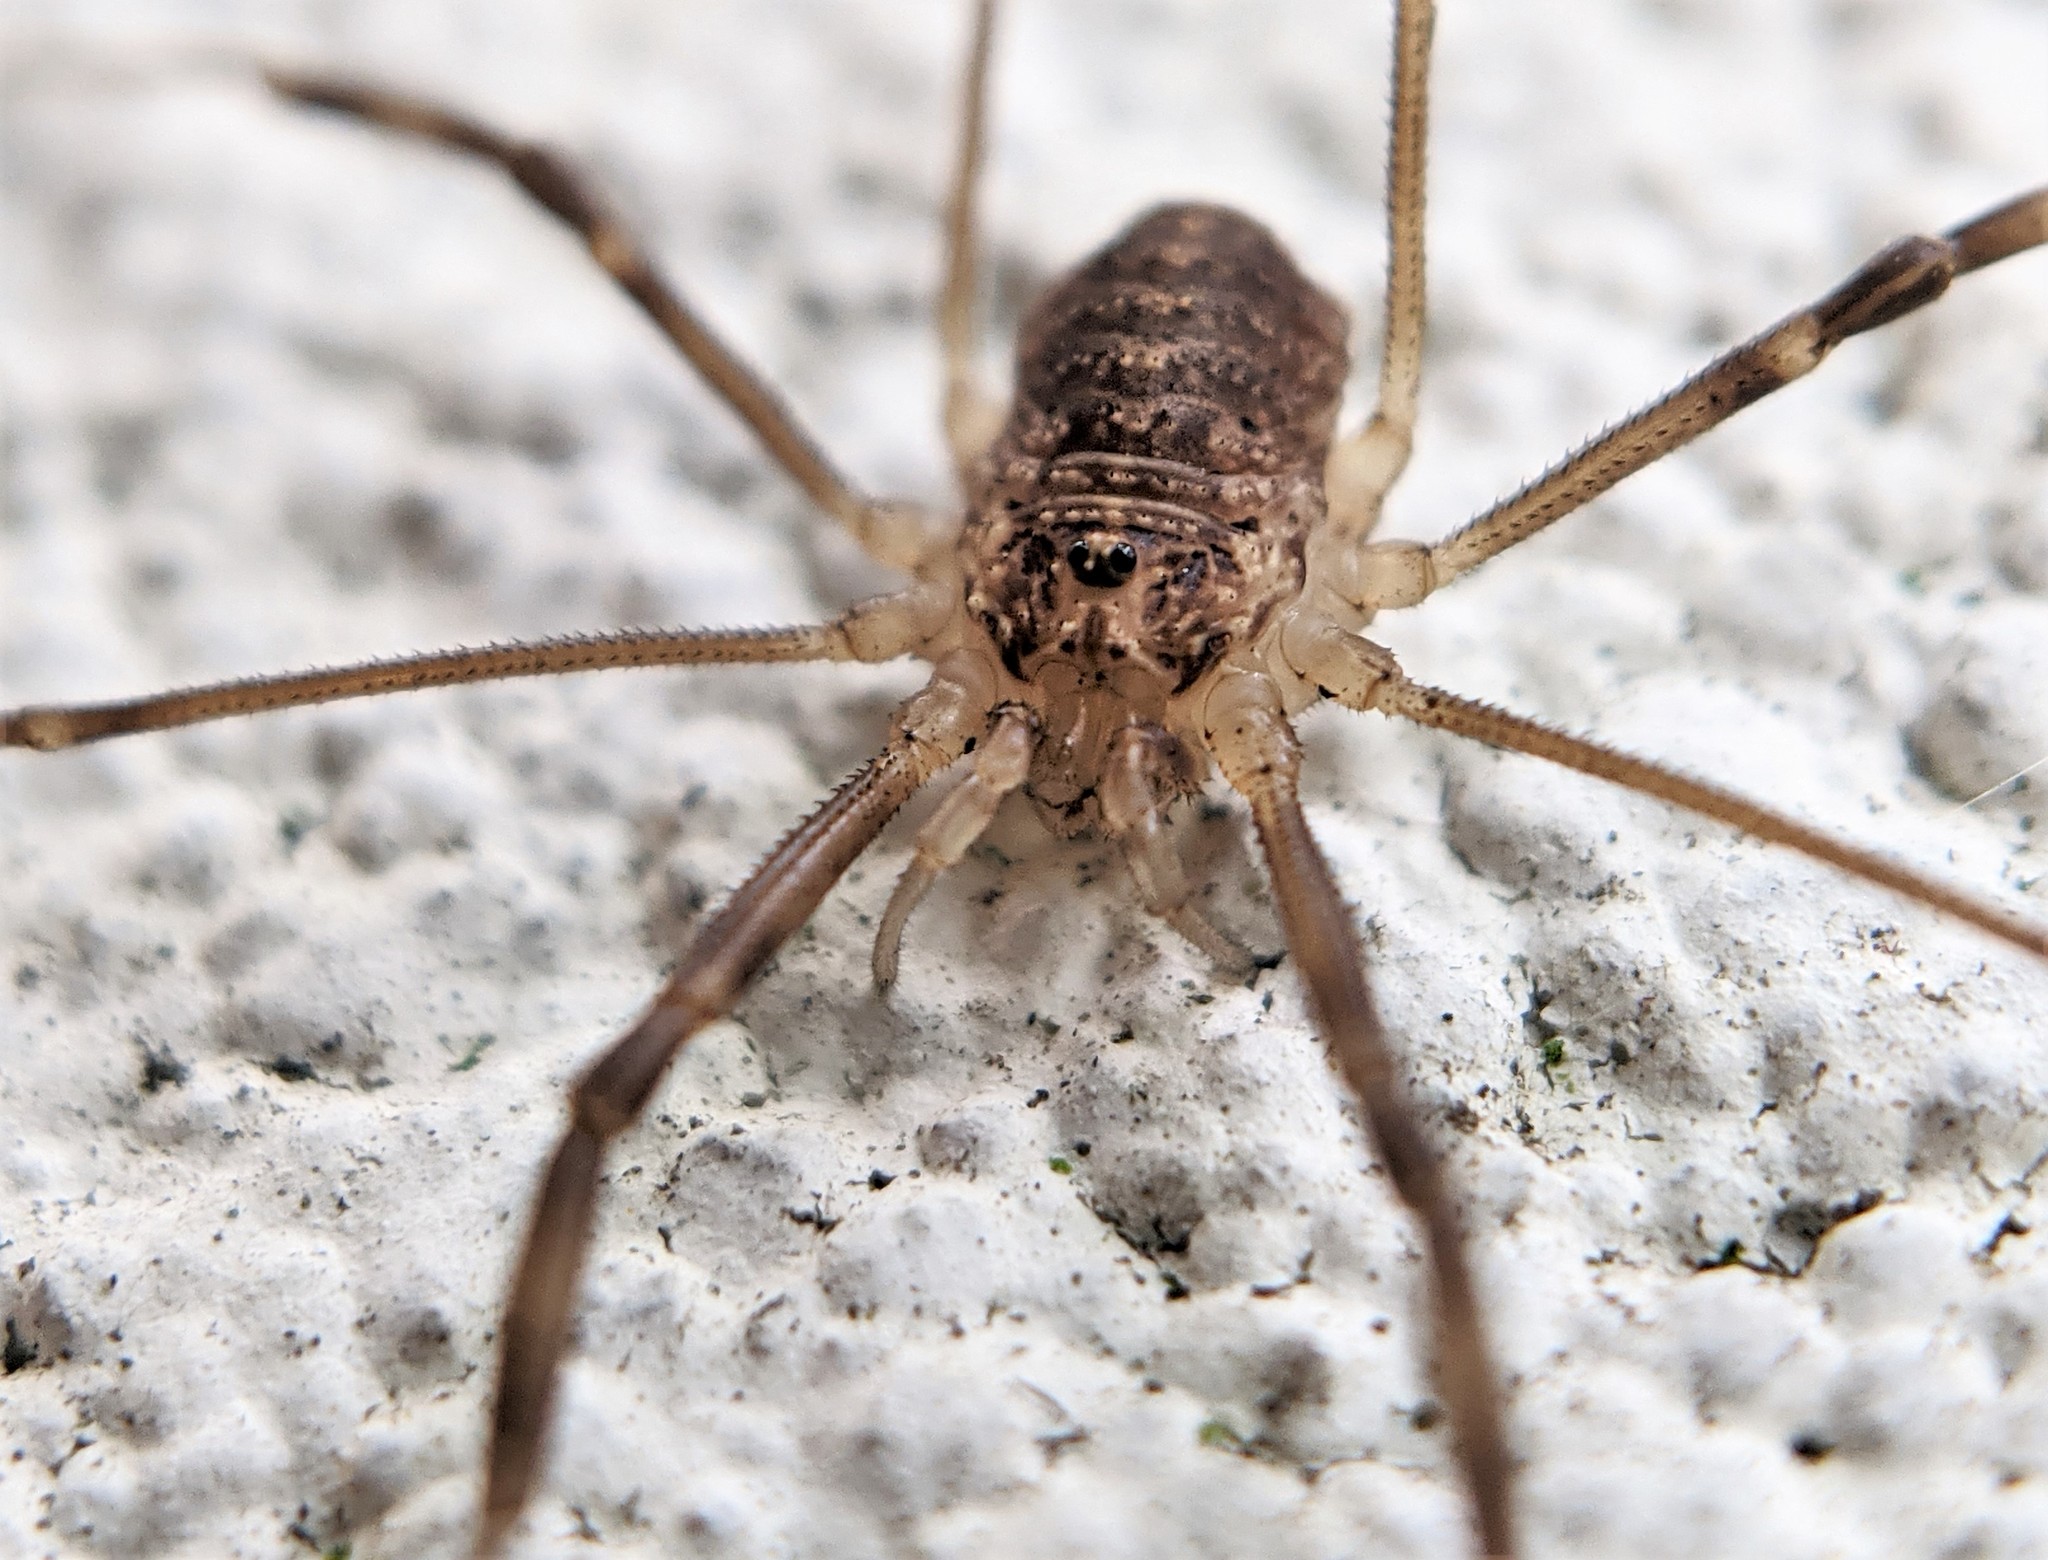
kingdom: Animalia
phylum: Arthropoda
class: Arachnida
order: Opiliones
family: Phalangiidae
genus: Opilio
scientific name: Opilio saxatilis
